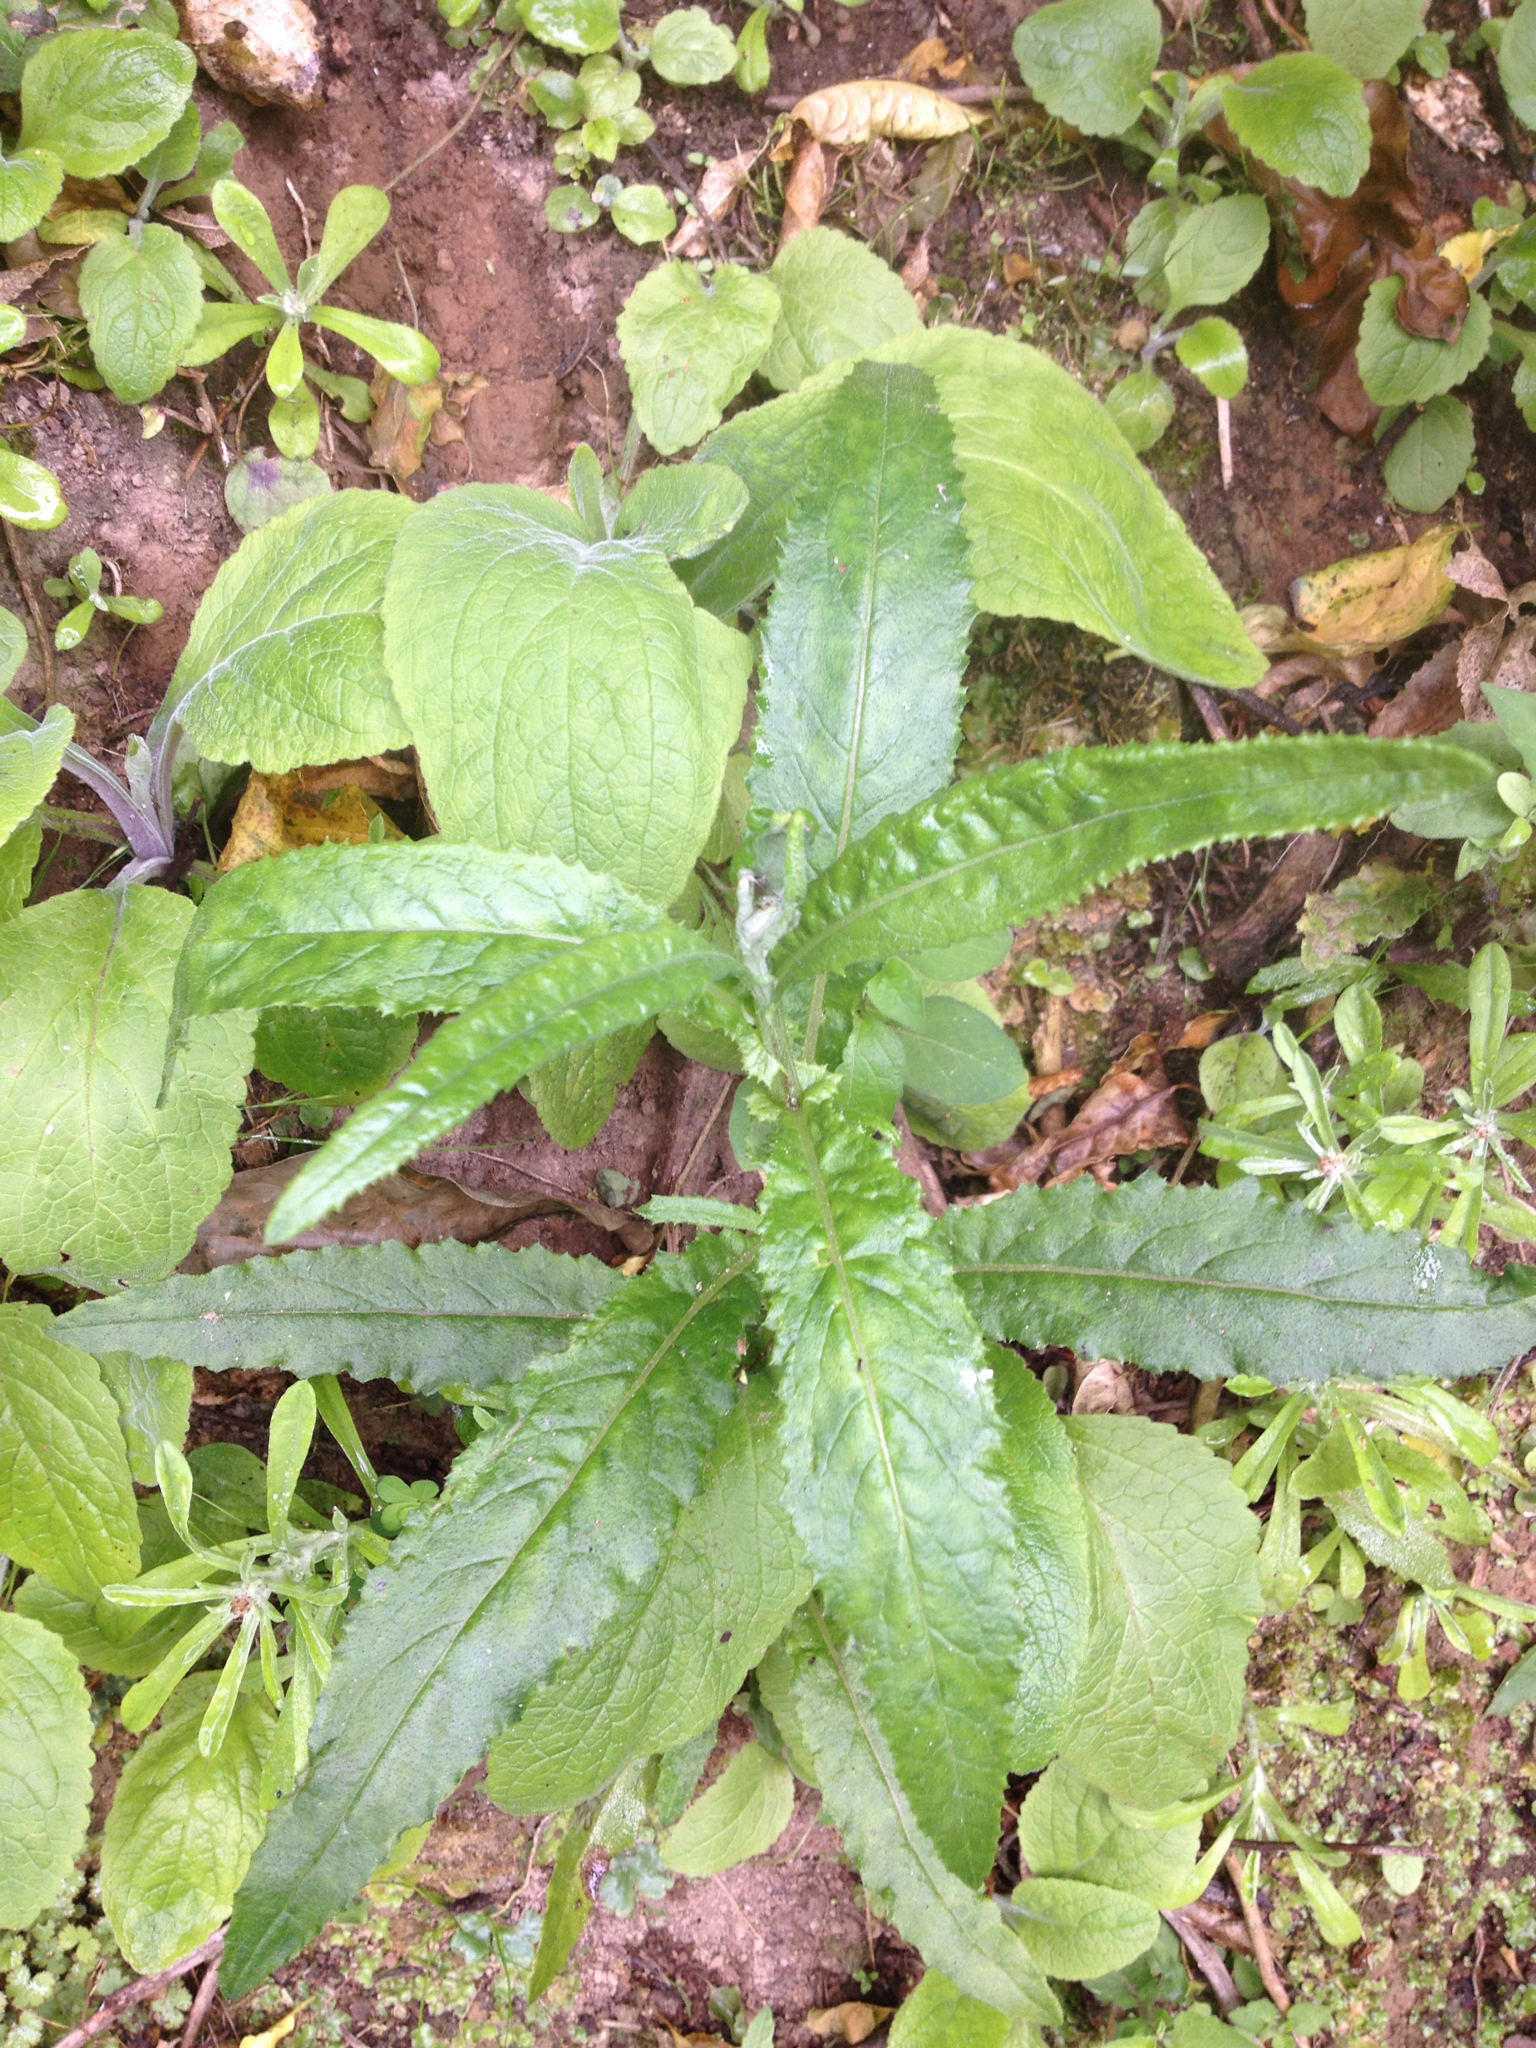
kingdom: Plantae
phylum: Tracheophyta
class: Magnoliopsida
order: Asterales
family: Asteraceae
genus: Senecio
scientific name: Senecio minimus
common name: Toothed fireweed
